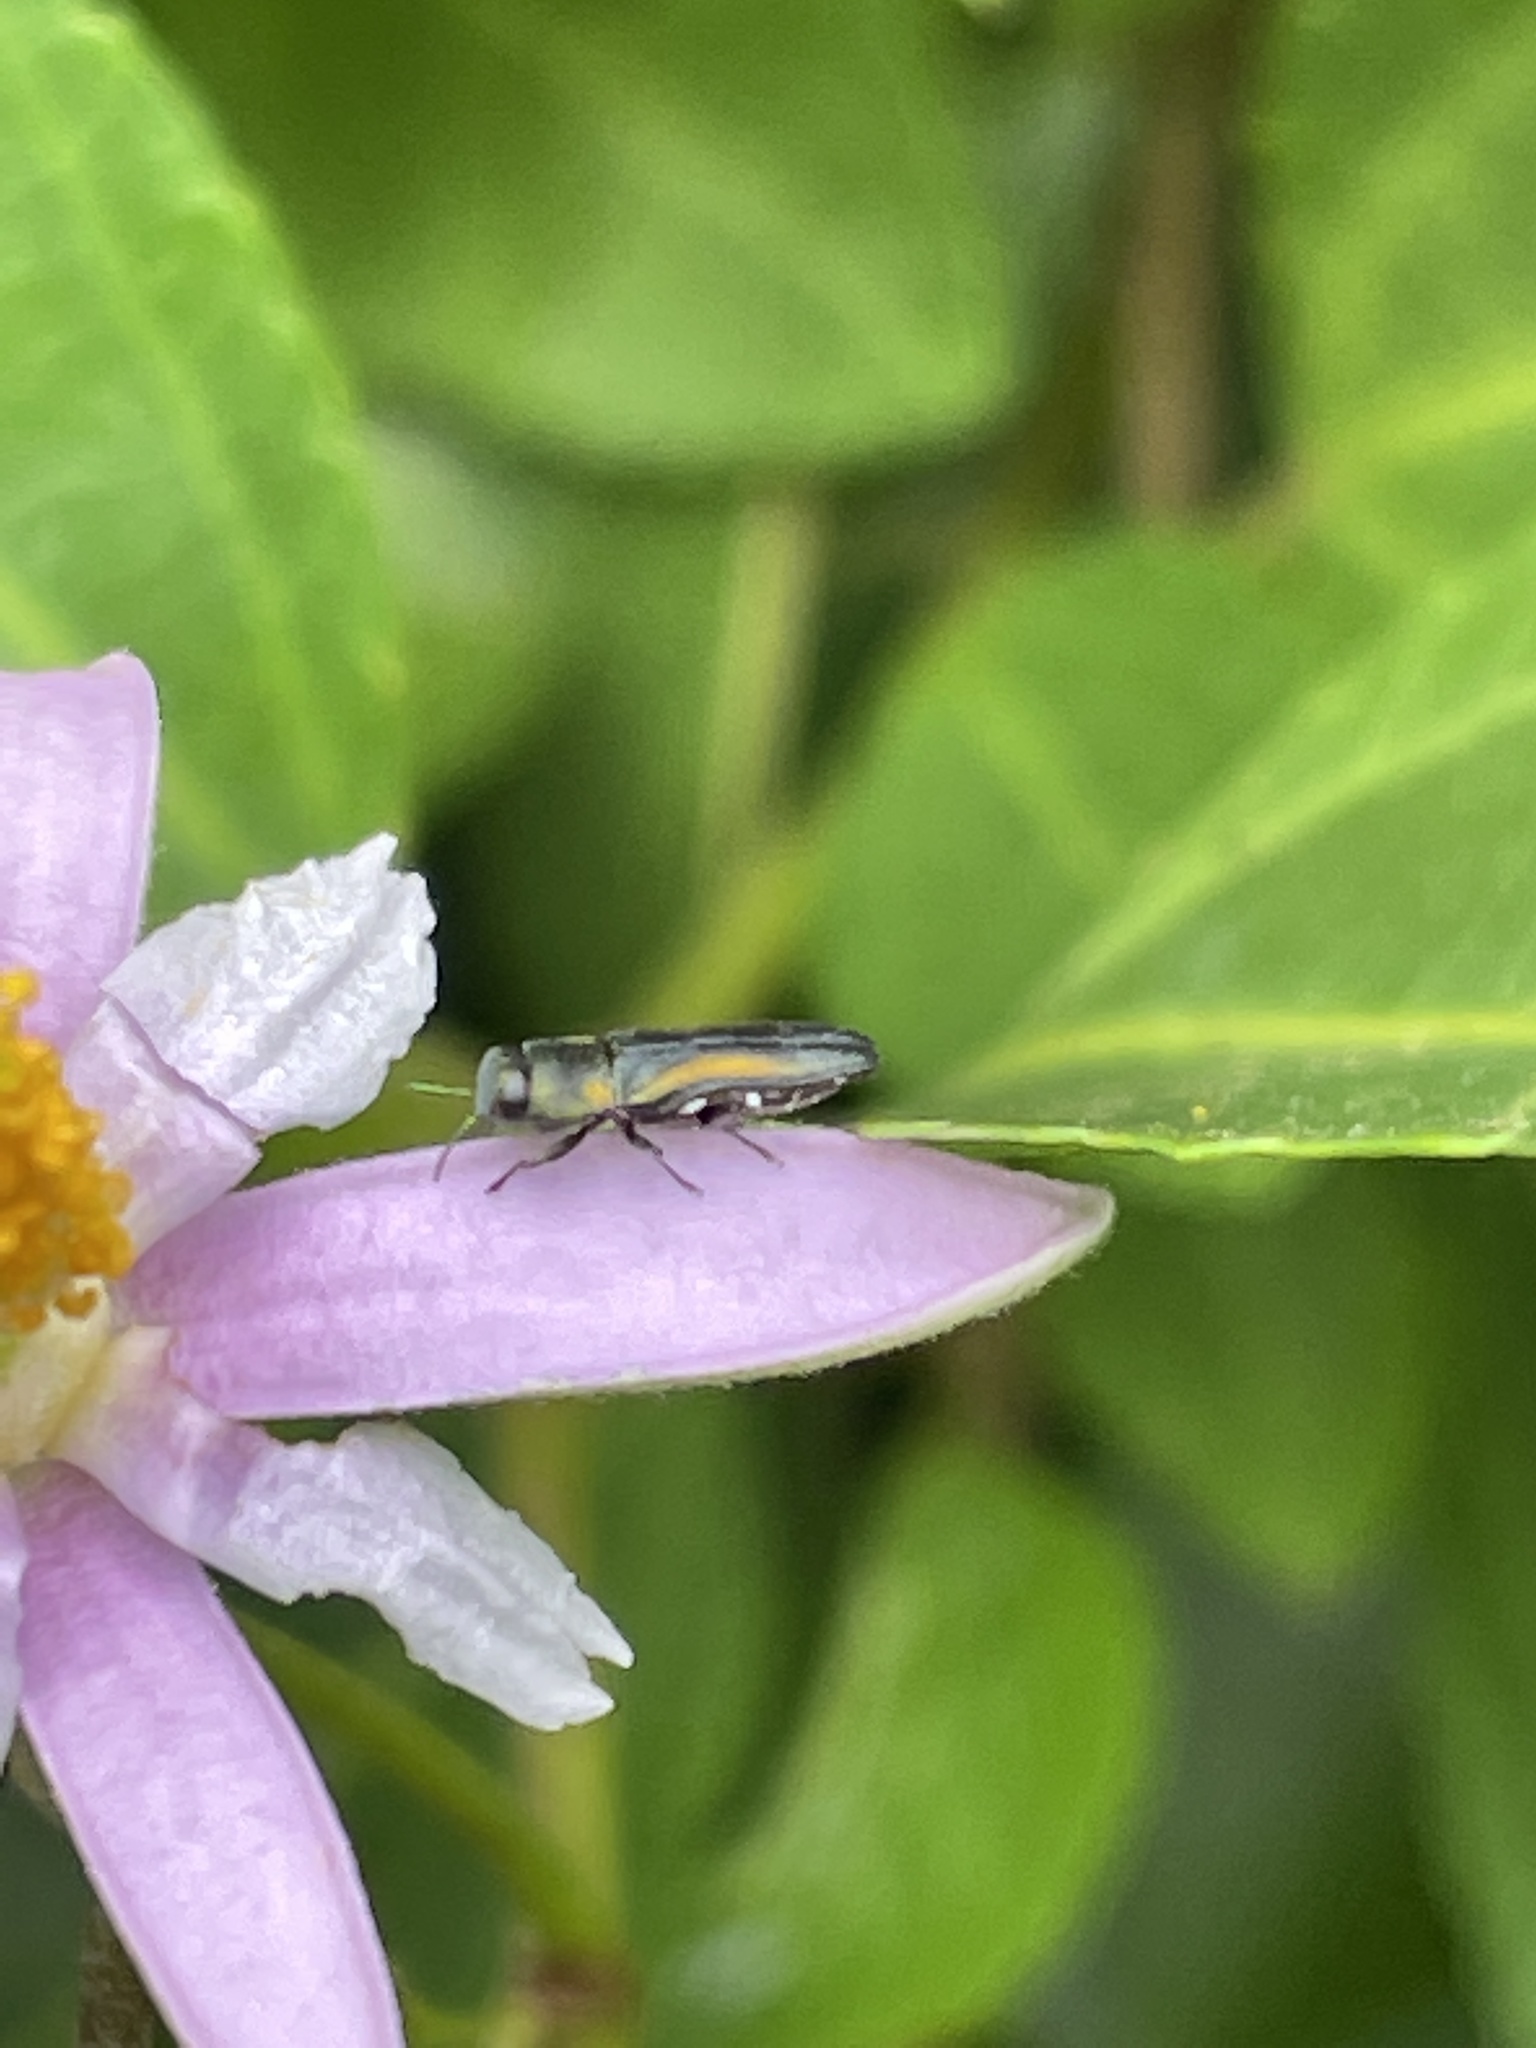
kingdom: Animalia
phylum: Arthropoda
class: Insecta
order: Coleoptera
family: Buprestidae
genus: Anthaxia
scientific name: Anthaxia vittipennis
